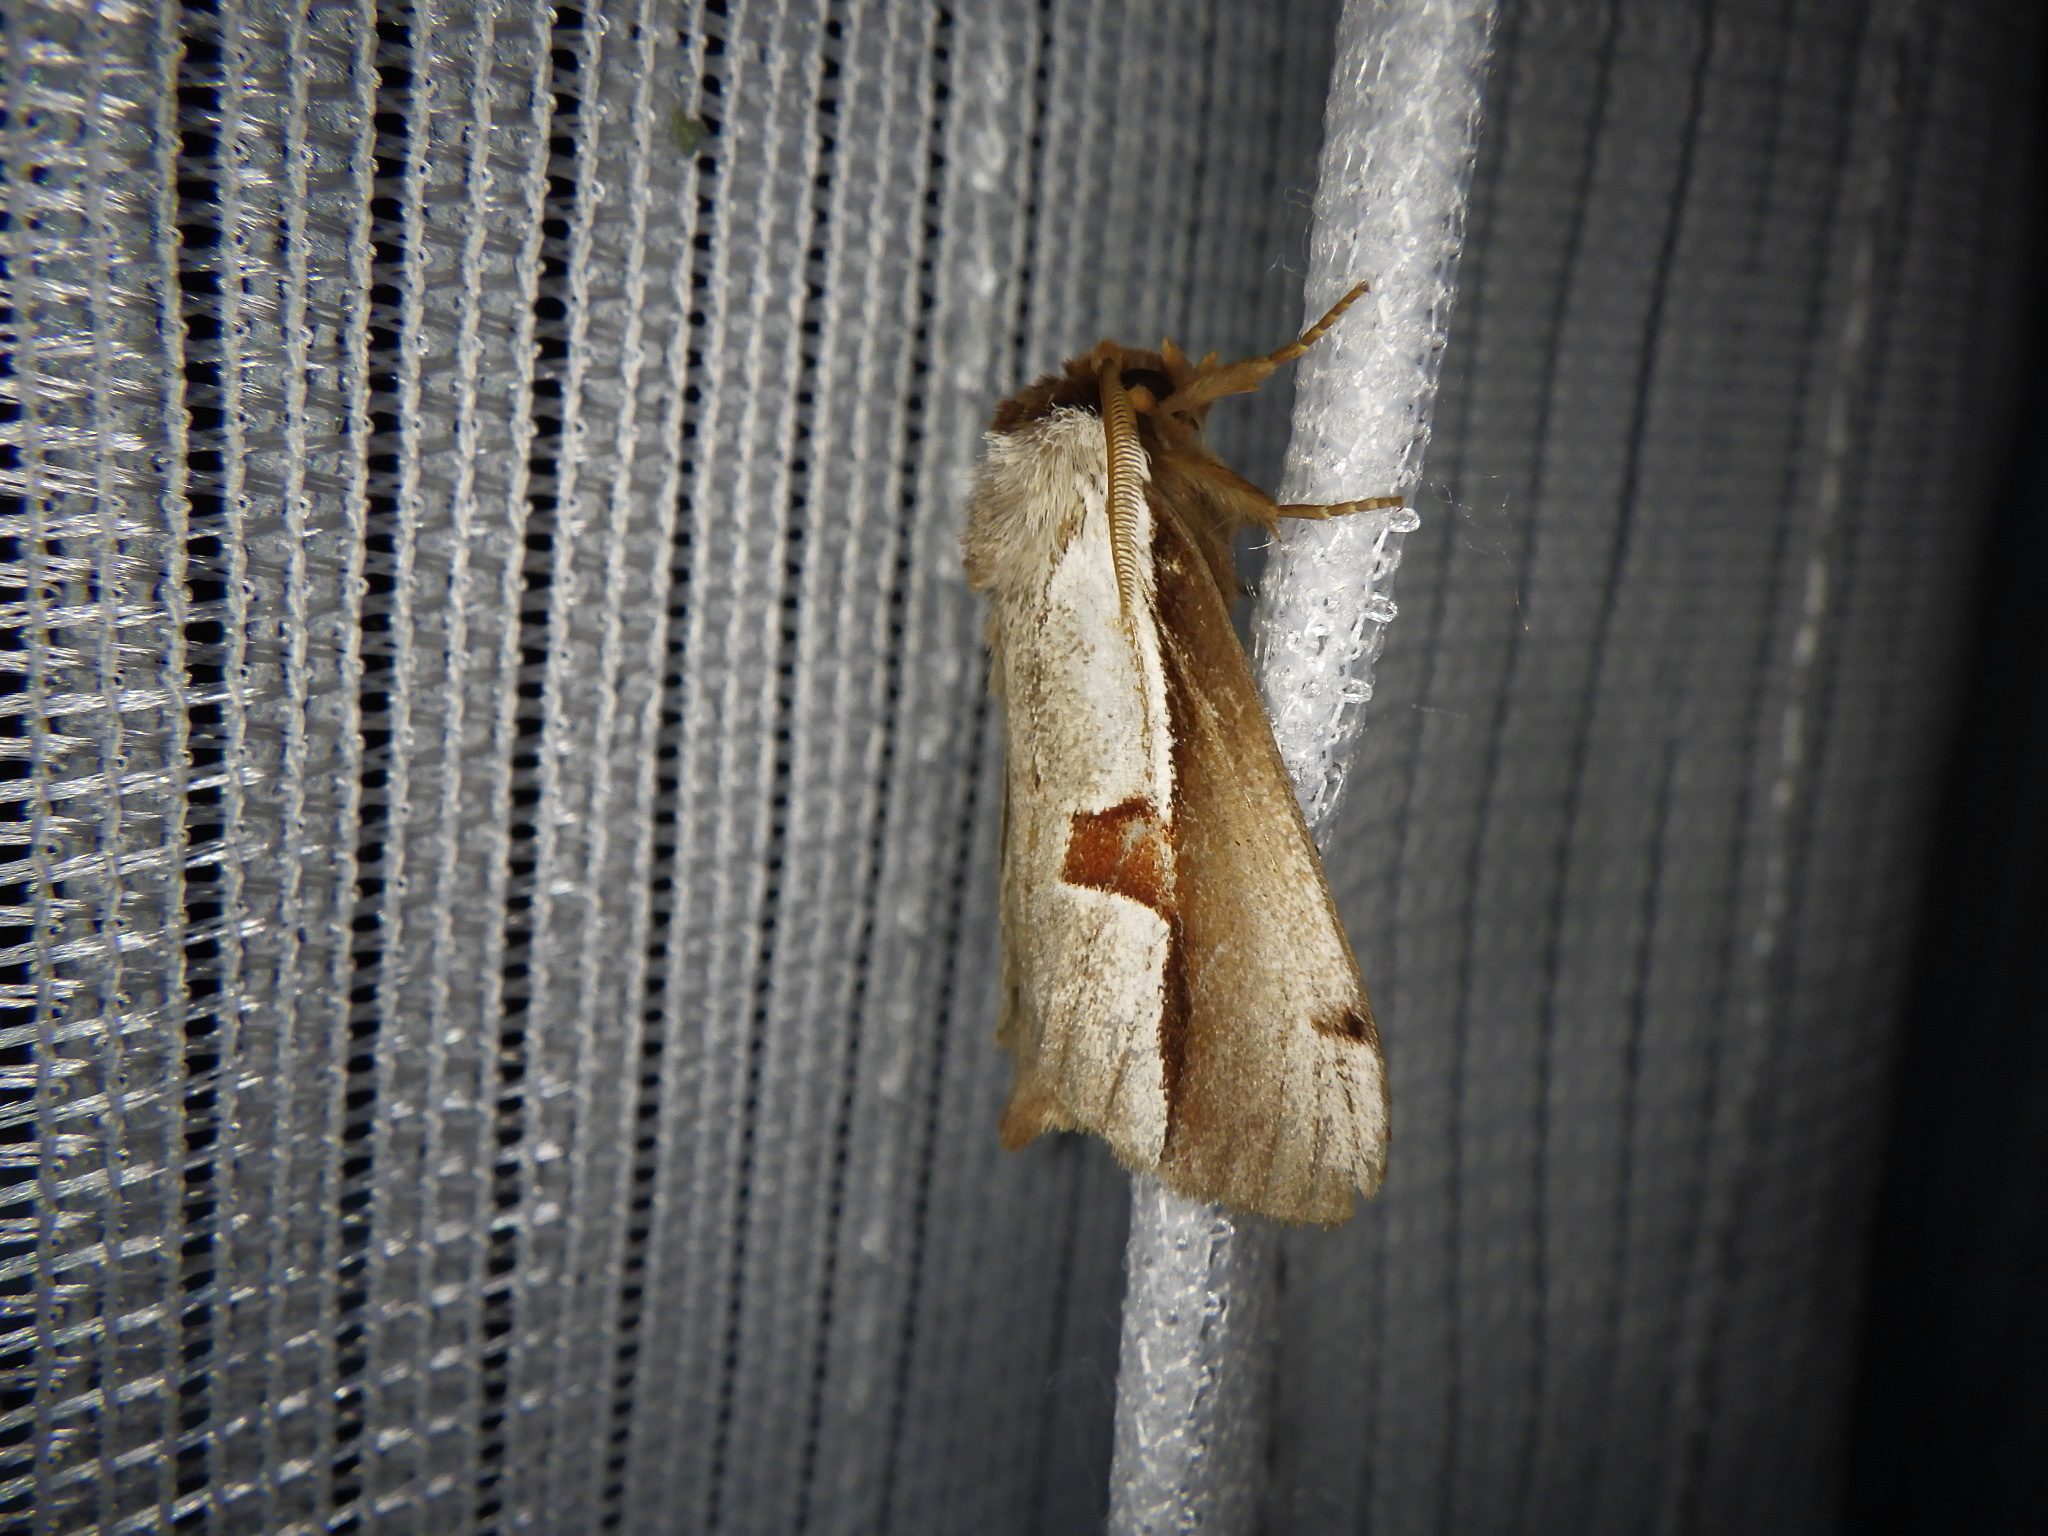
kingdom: Animalia
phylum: Arthropoda
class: Insecta
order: Lepidoptera
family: Notodontidae
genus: Nerice
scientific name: Nerice bipartita
